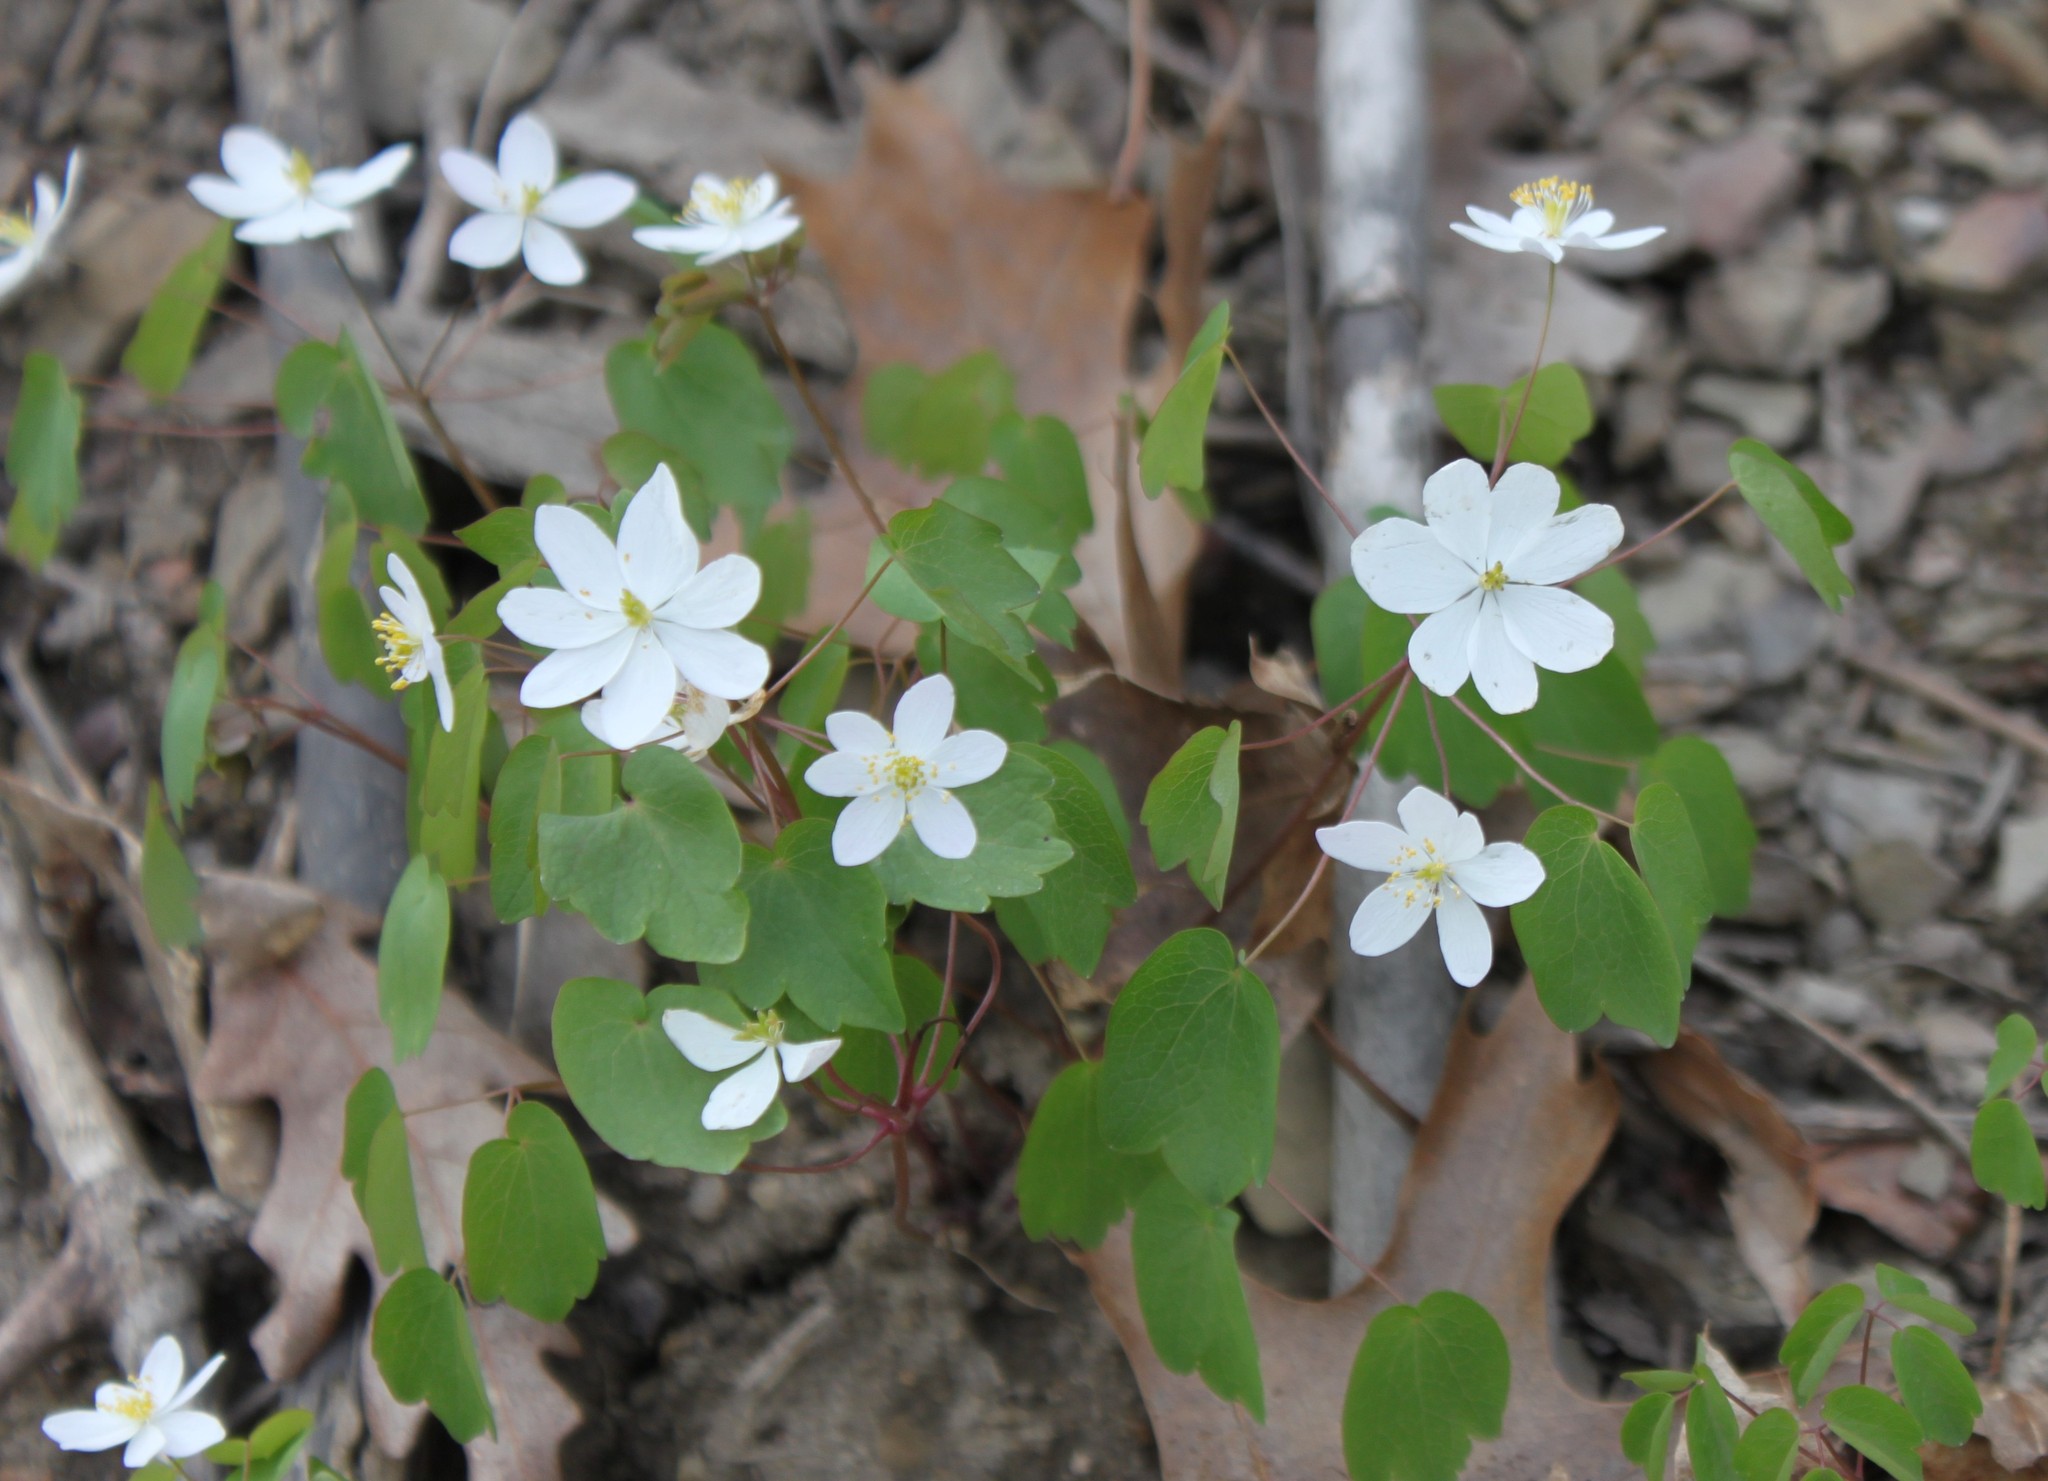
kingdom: Plantae
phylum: Tracheophyta
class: Magnoliopsida
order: Ranunculales
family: Ranunculaceae
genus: Thalictrum
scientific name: Thalictrum thalictroides
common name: Rue-anemone
